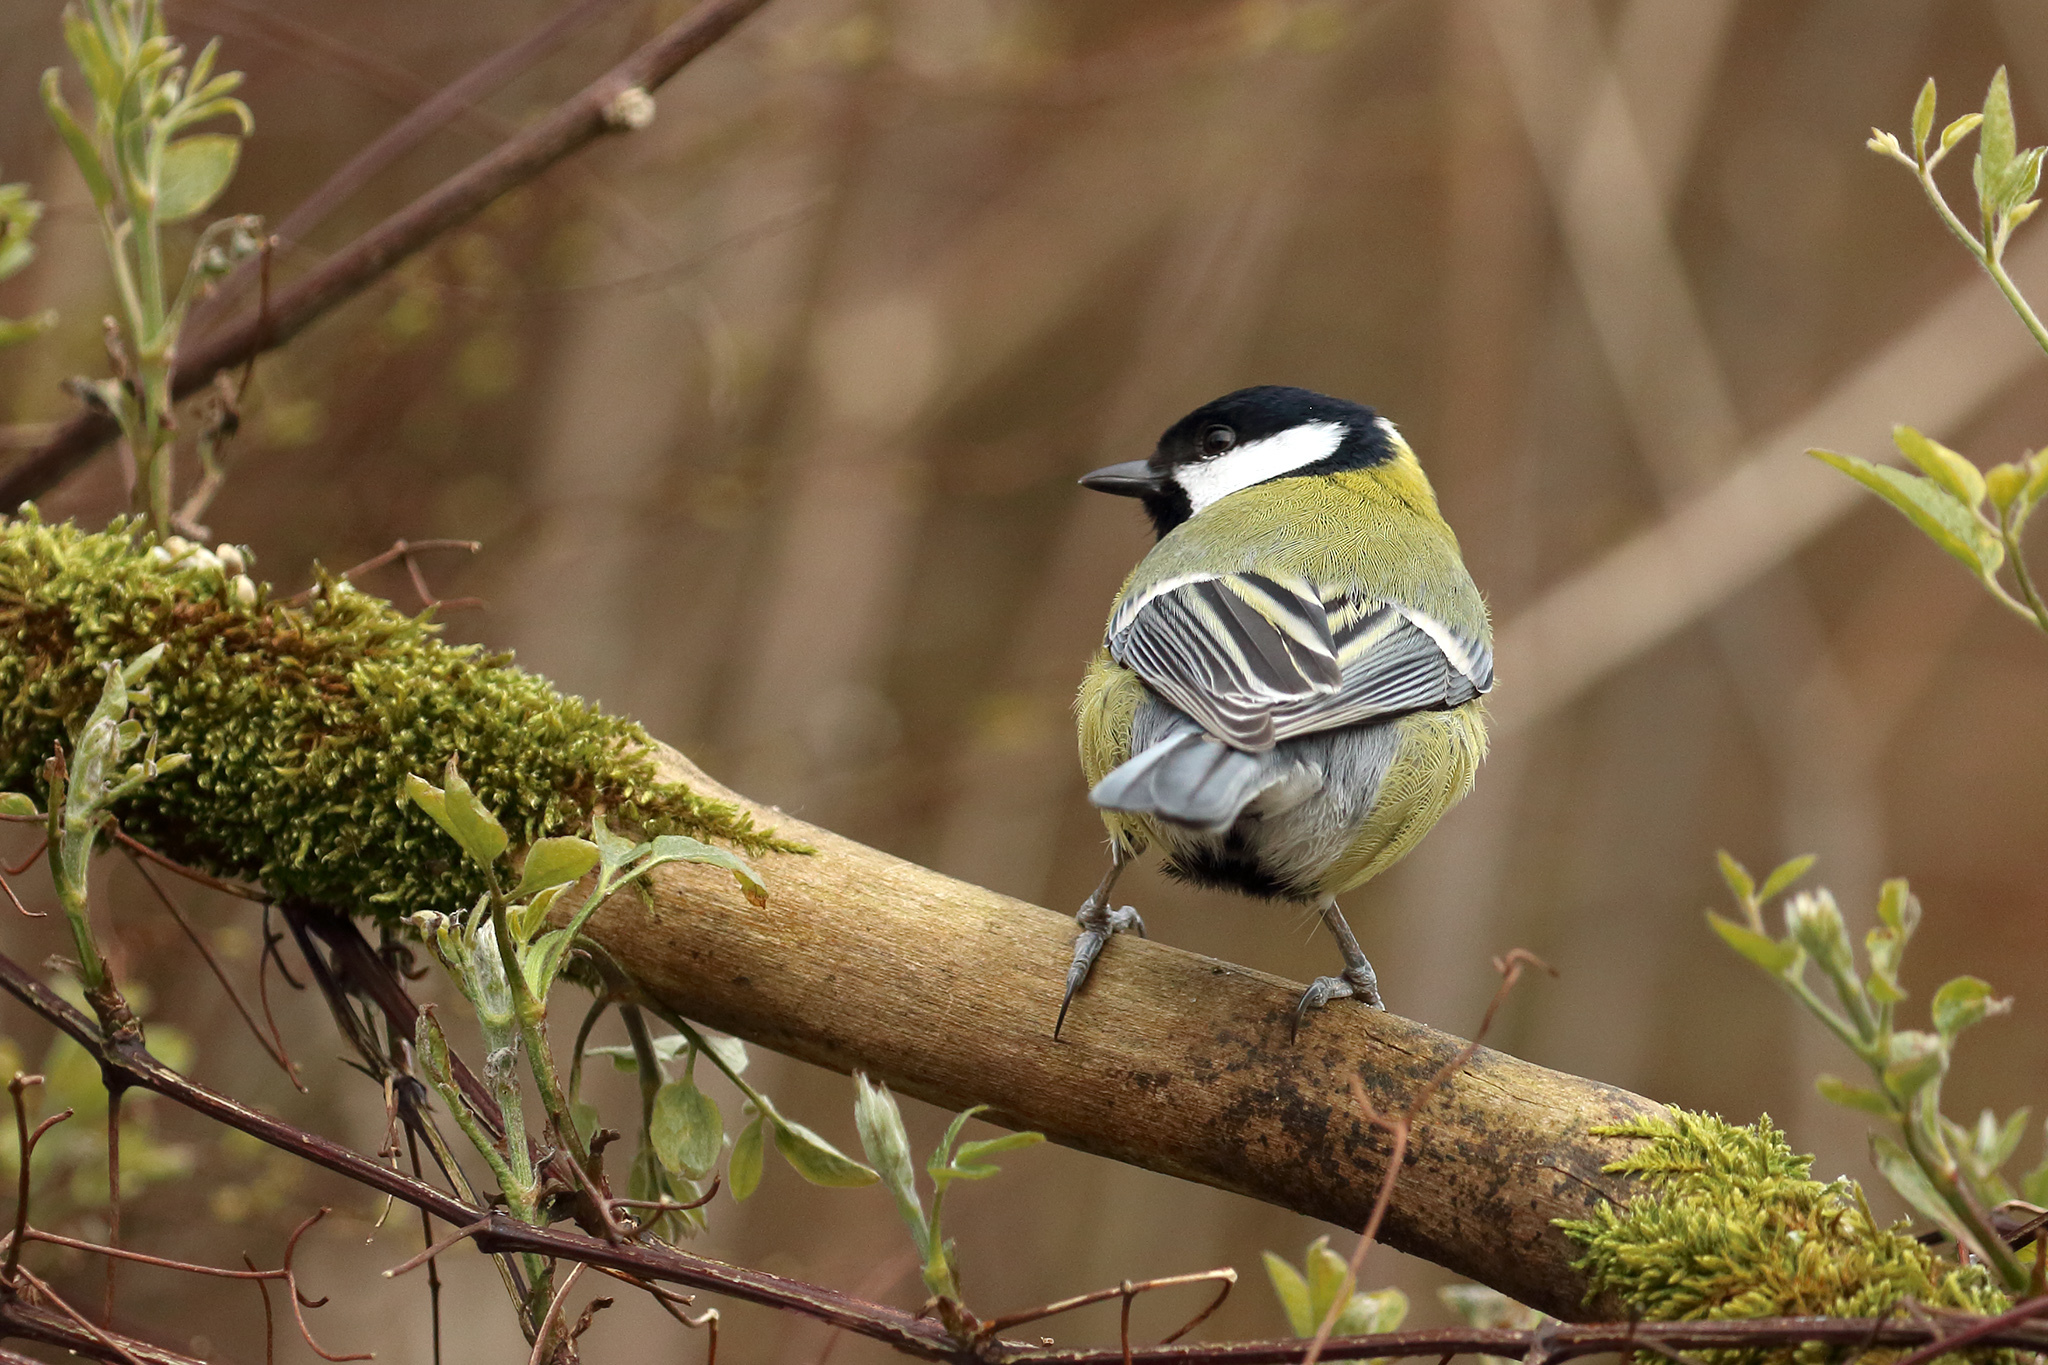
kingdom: Animalia
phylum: Chordata
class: Aves
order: Passeriformes
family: Paridae
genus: Parus
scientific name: Parus major
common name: Great tit
